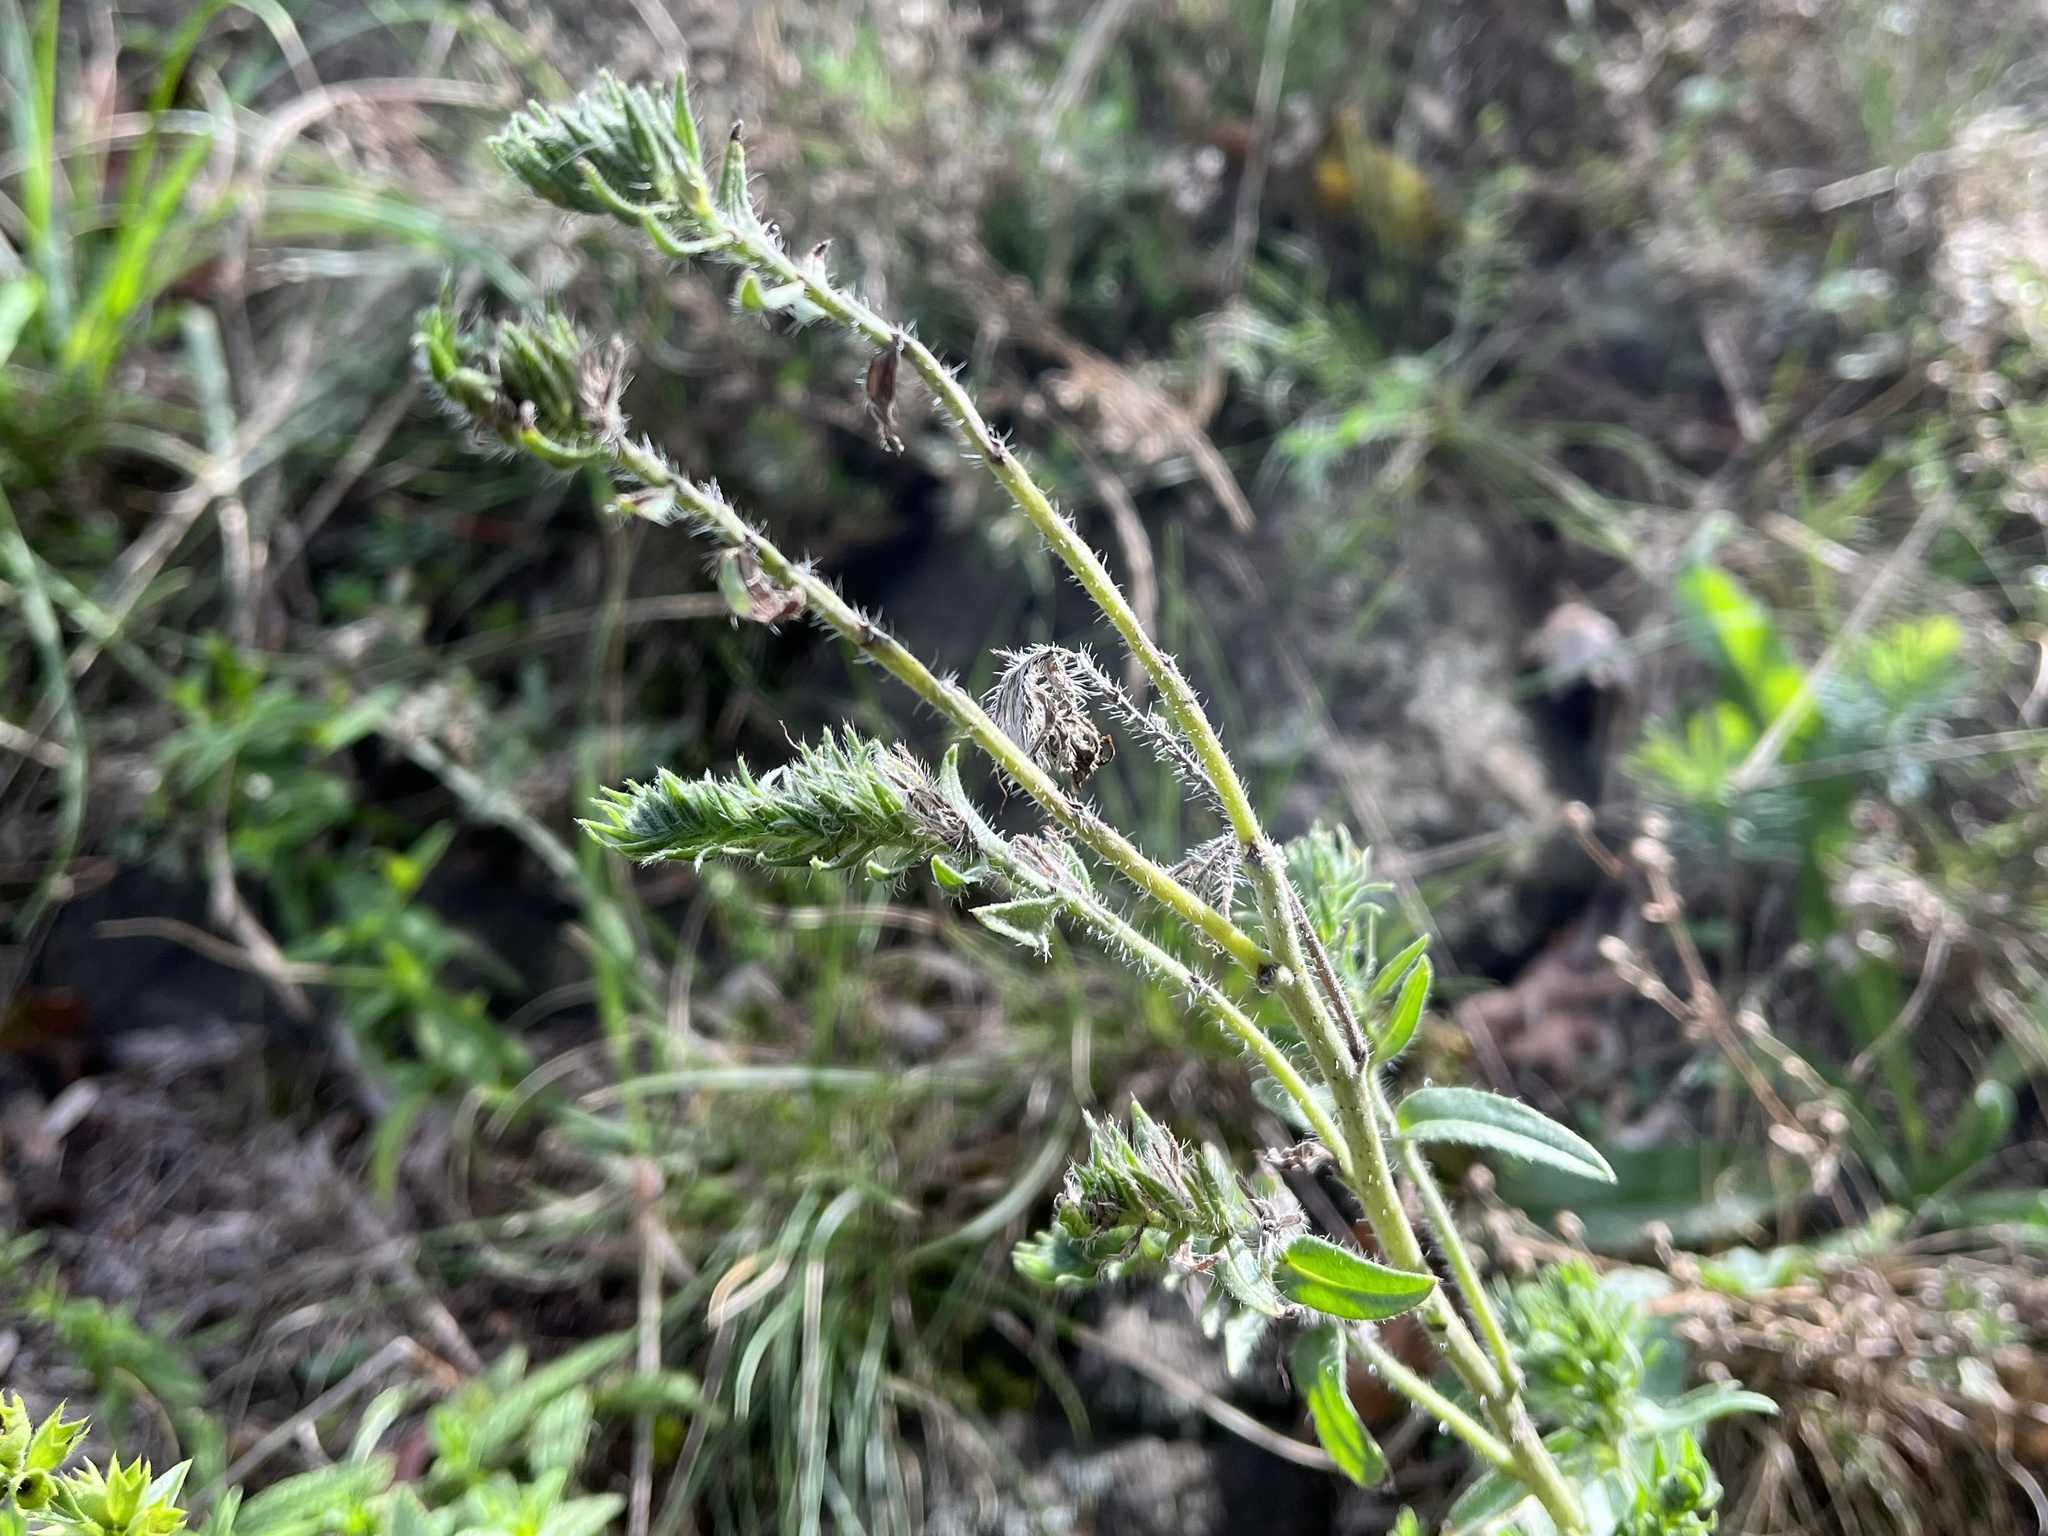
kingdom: Plantae
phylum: Tracheophyta
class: Magnoliopsida
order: Boraginales
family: Boraginaceae
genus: Echium
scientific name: Echium vulgare
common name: Common viper's bugloss
